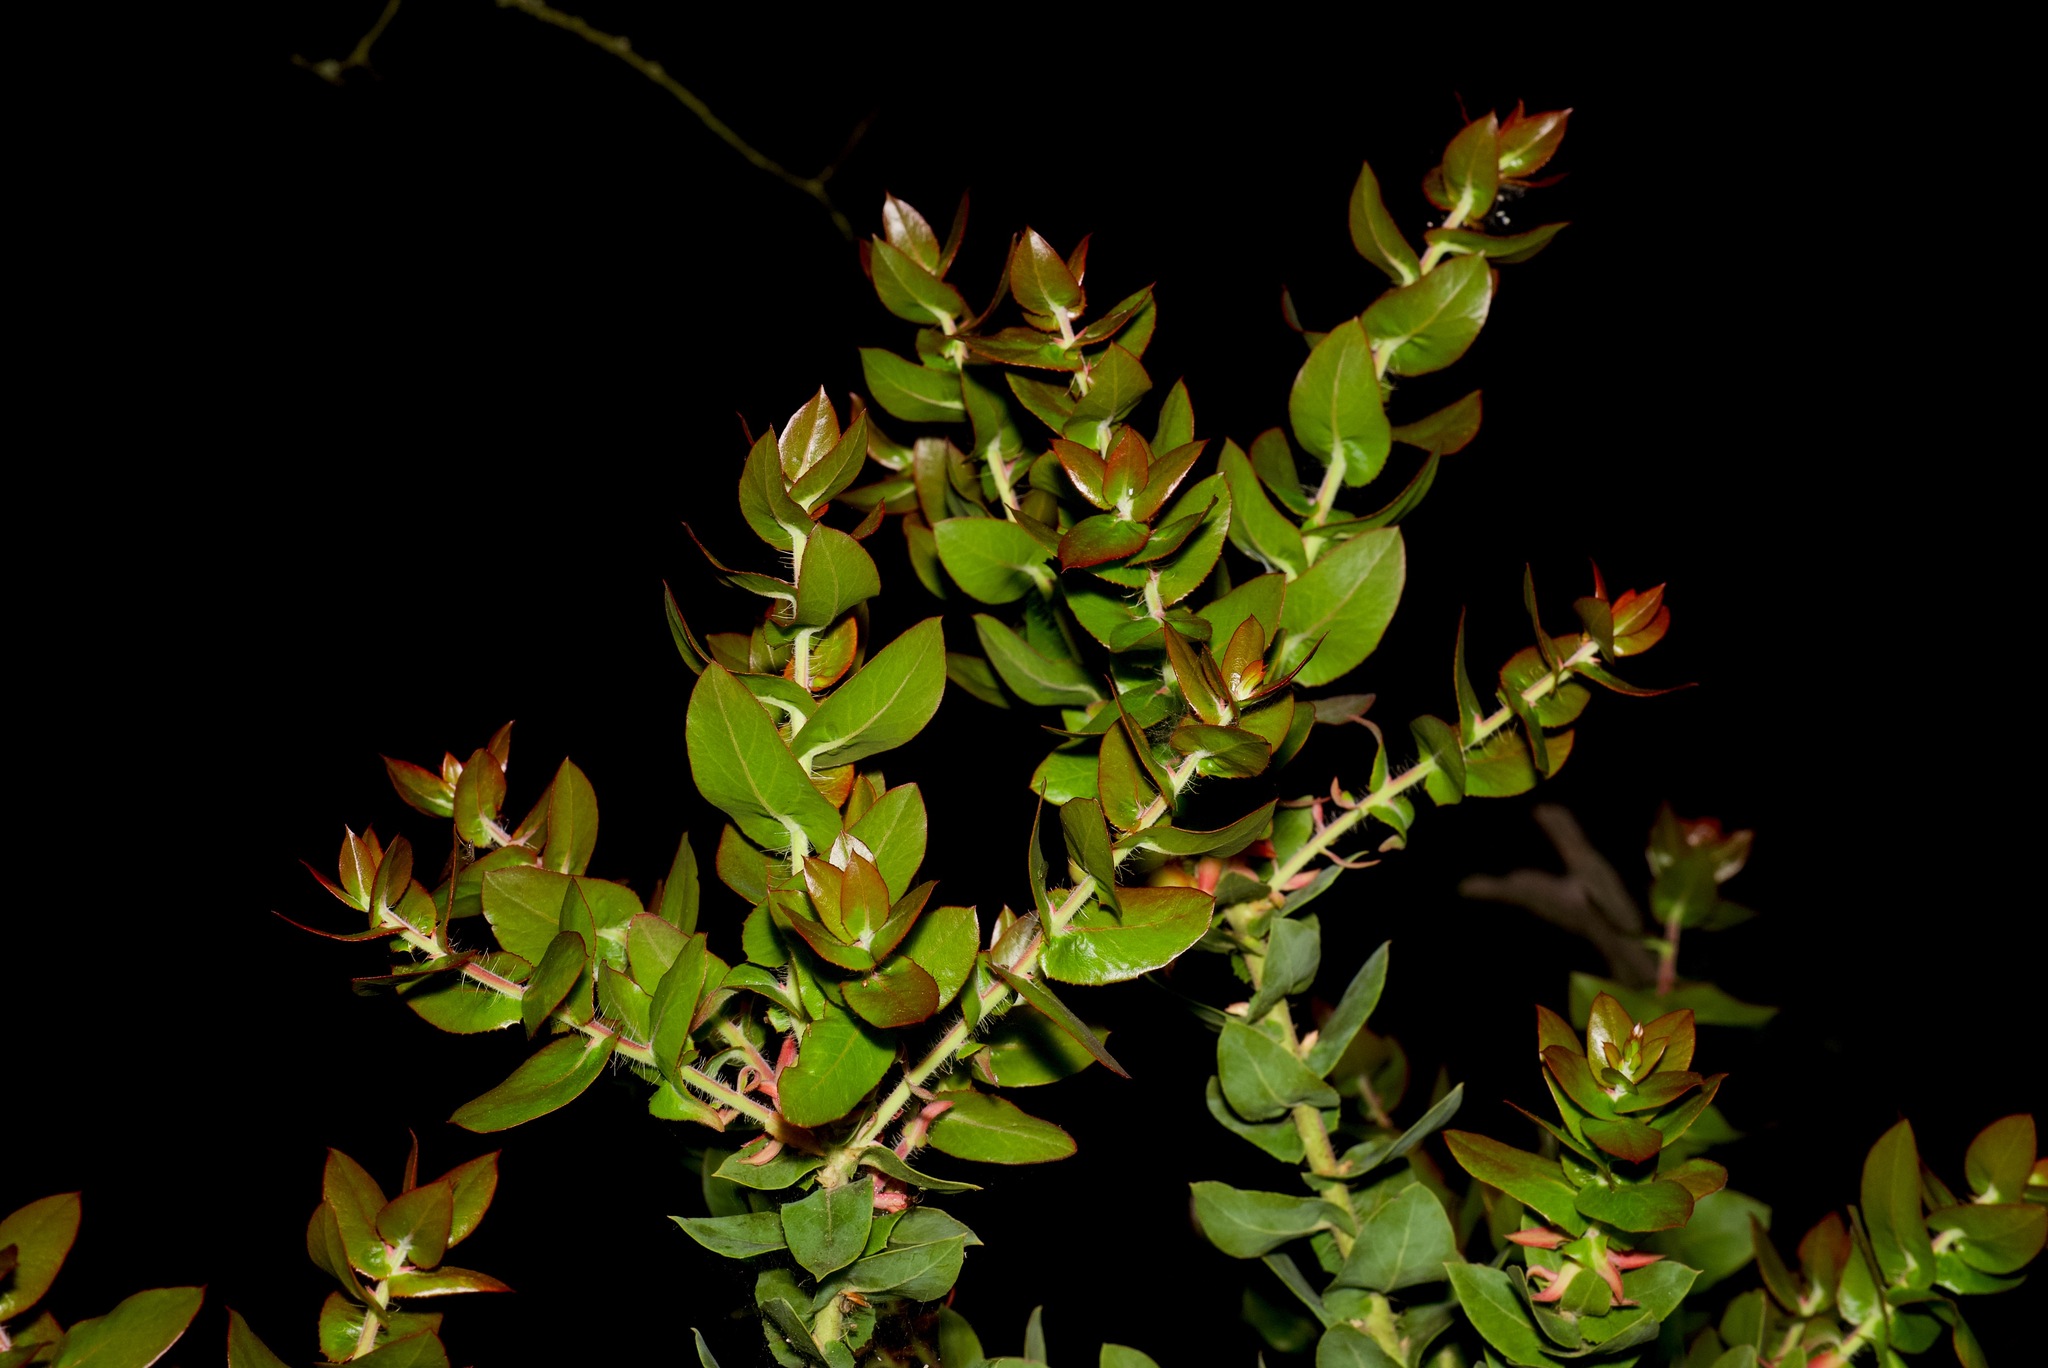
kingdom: Plantae
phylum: Tracheophyta
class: Magnoliopsida
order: Ericales
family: Ericaceae
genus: Arctostaphylos
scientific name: Arctostaphylos pallida
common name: Pallid manzanita
